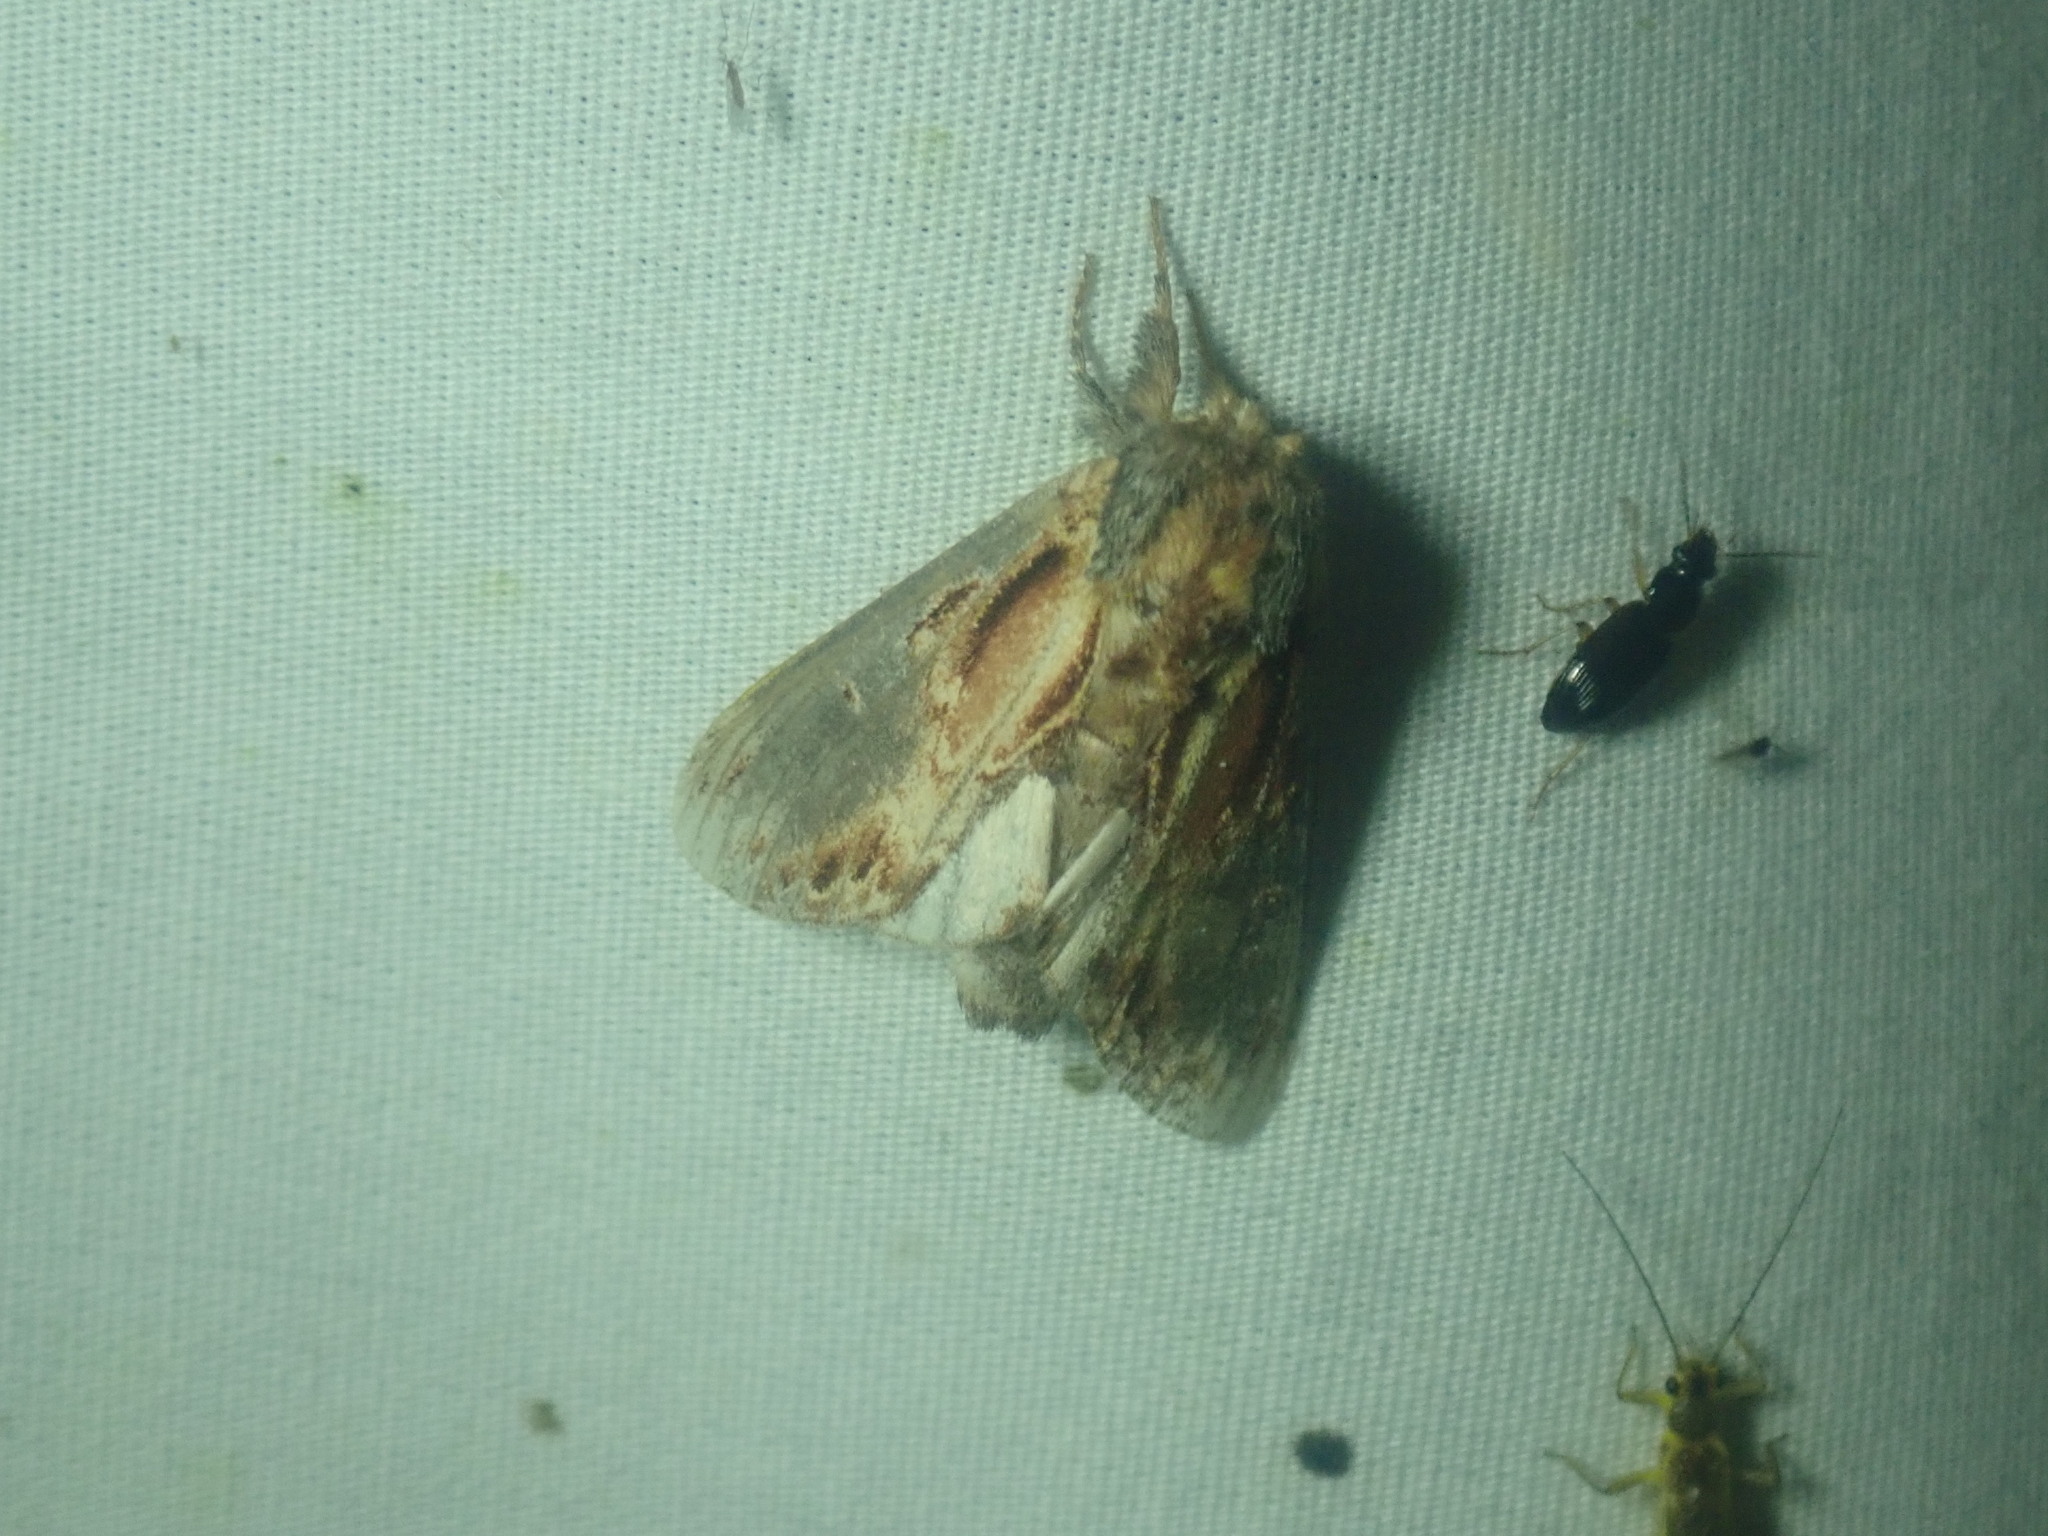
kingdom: Animalia
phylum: Arthropoda
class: Insecta
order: Lepidoptera
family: Notodontidae
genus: Notodonta
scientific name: Notodonta scitipennis
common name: Finned-willow prominent moth
